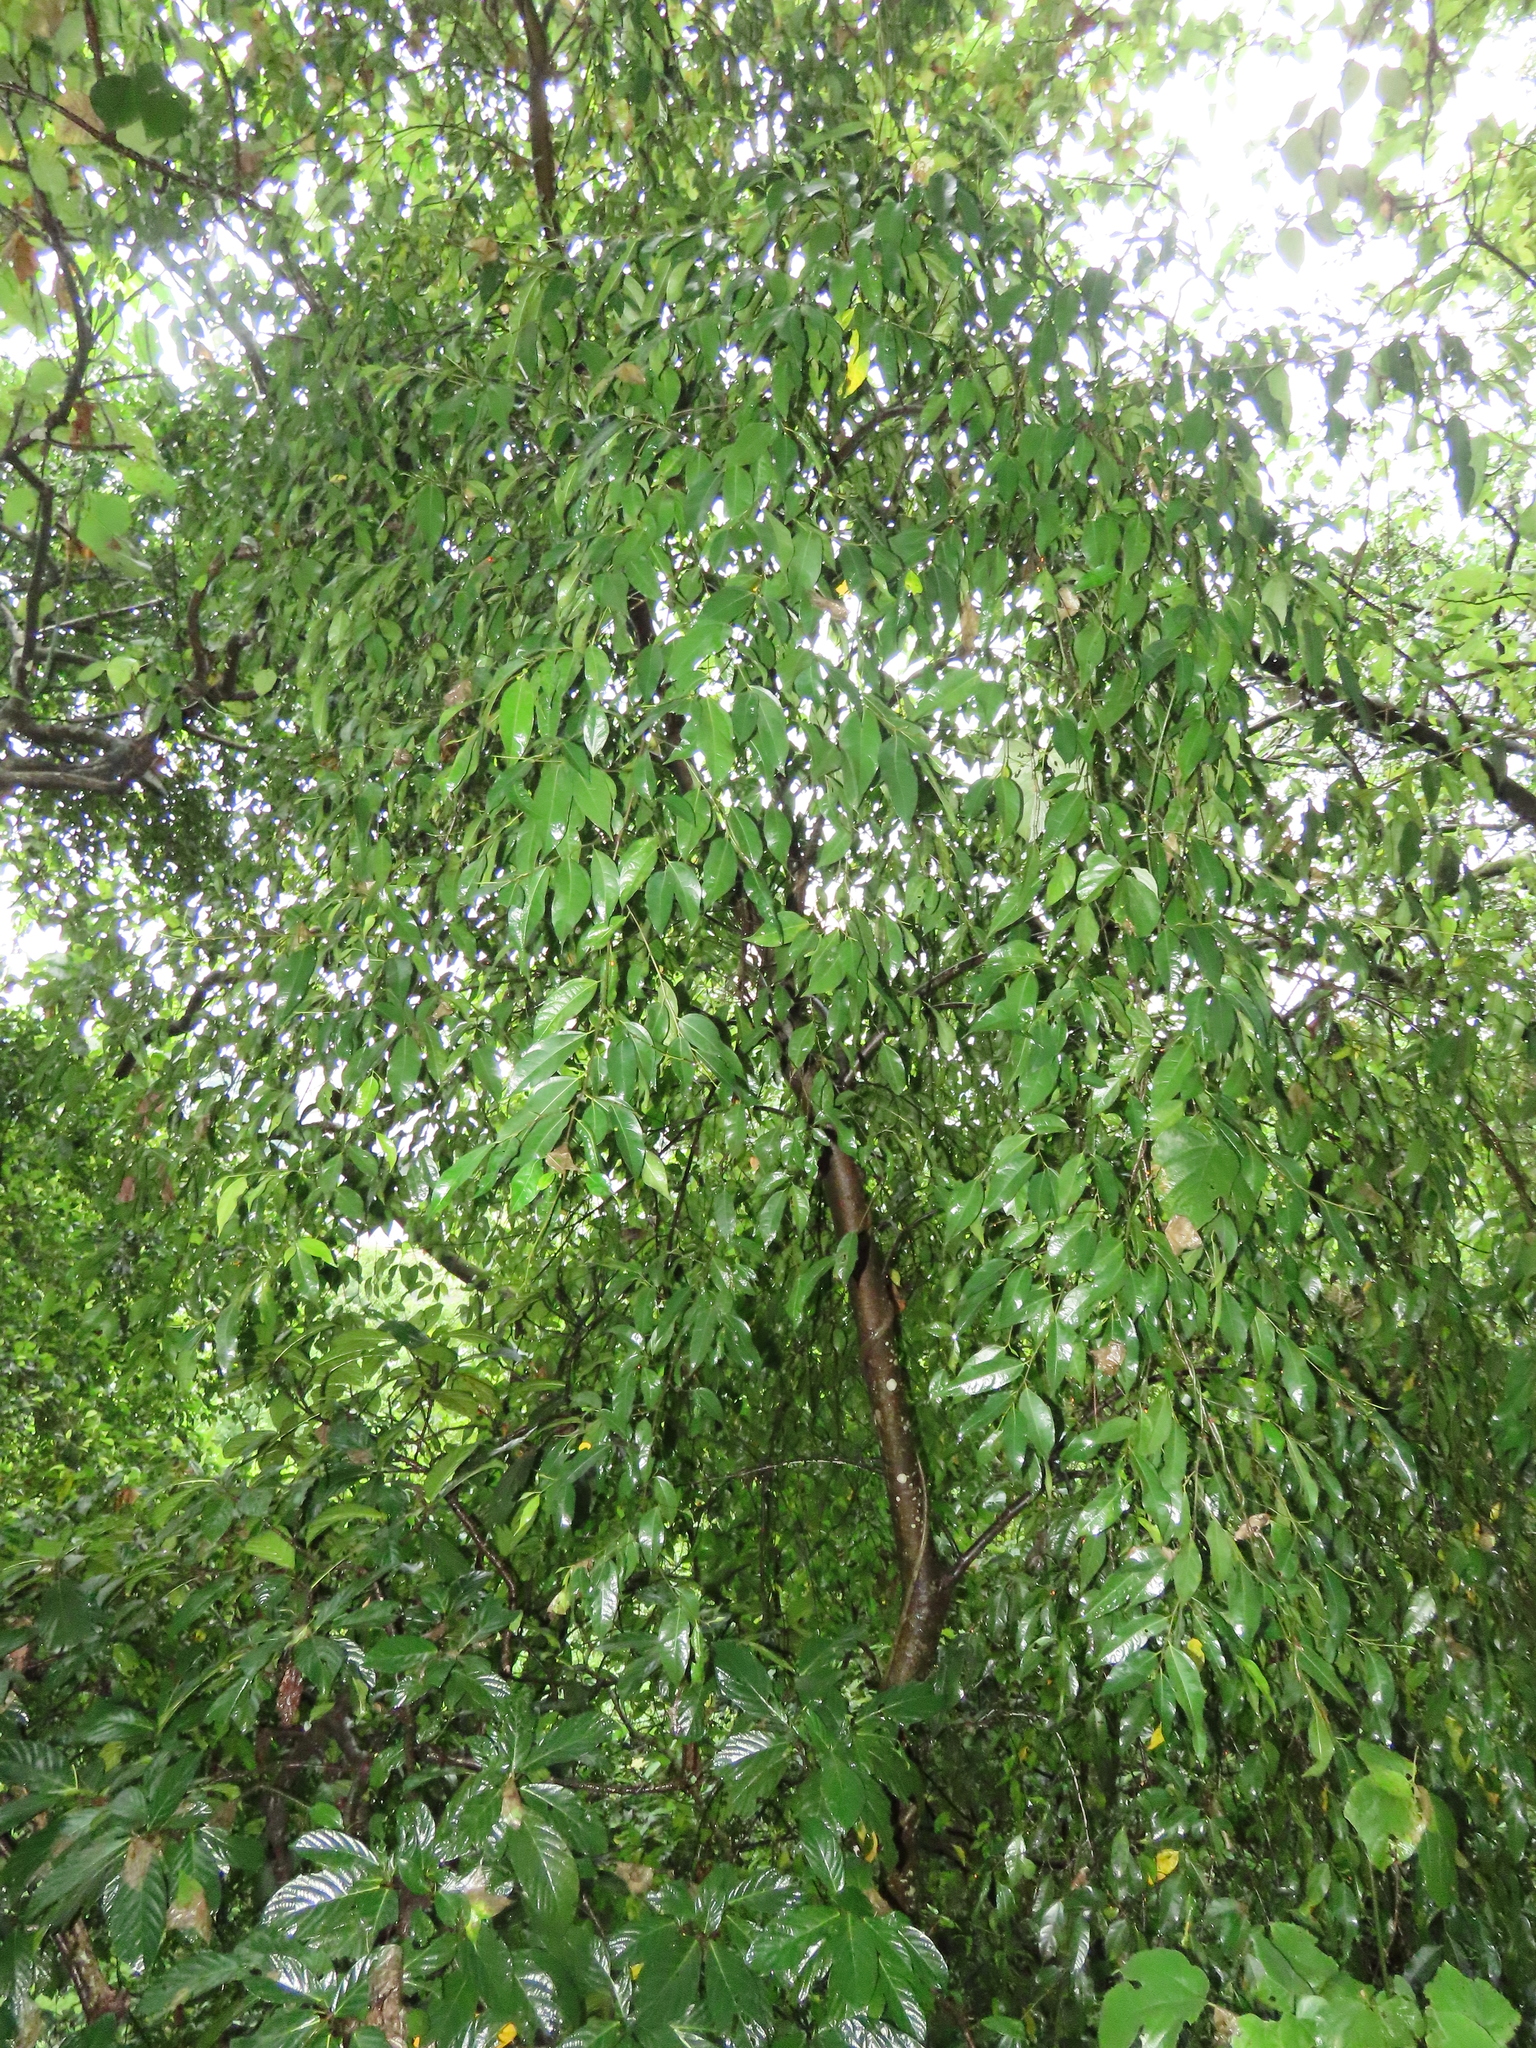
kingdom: Plantae
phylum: Tracheophyta
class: Magnoliopsida
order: Rosales
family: Moraceae
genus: Ficus
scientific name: Ficus ampelos
